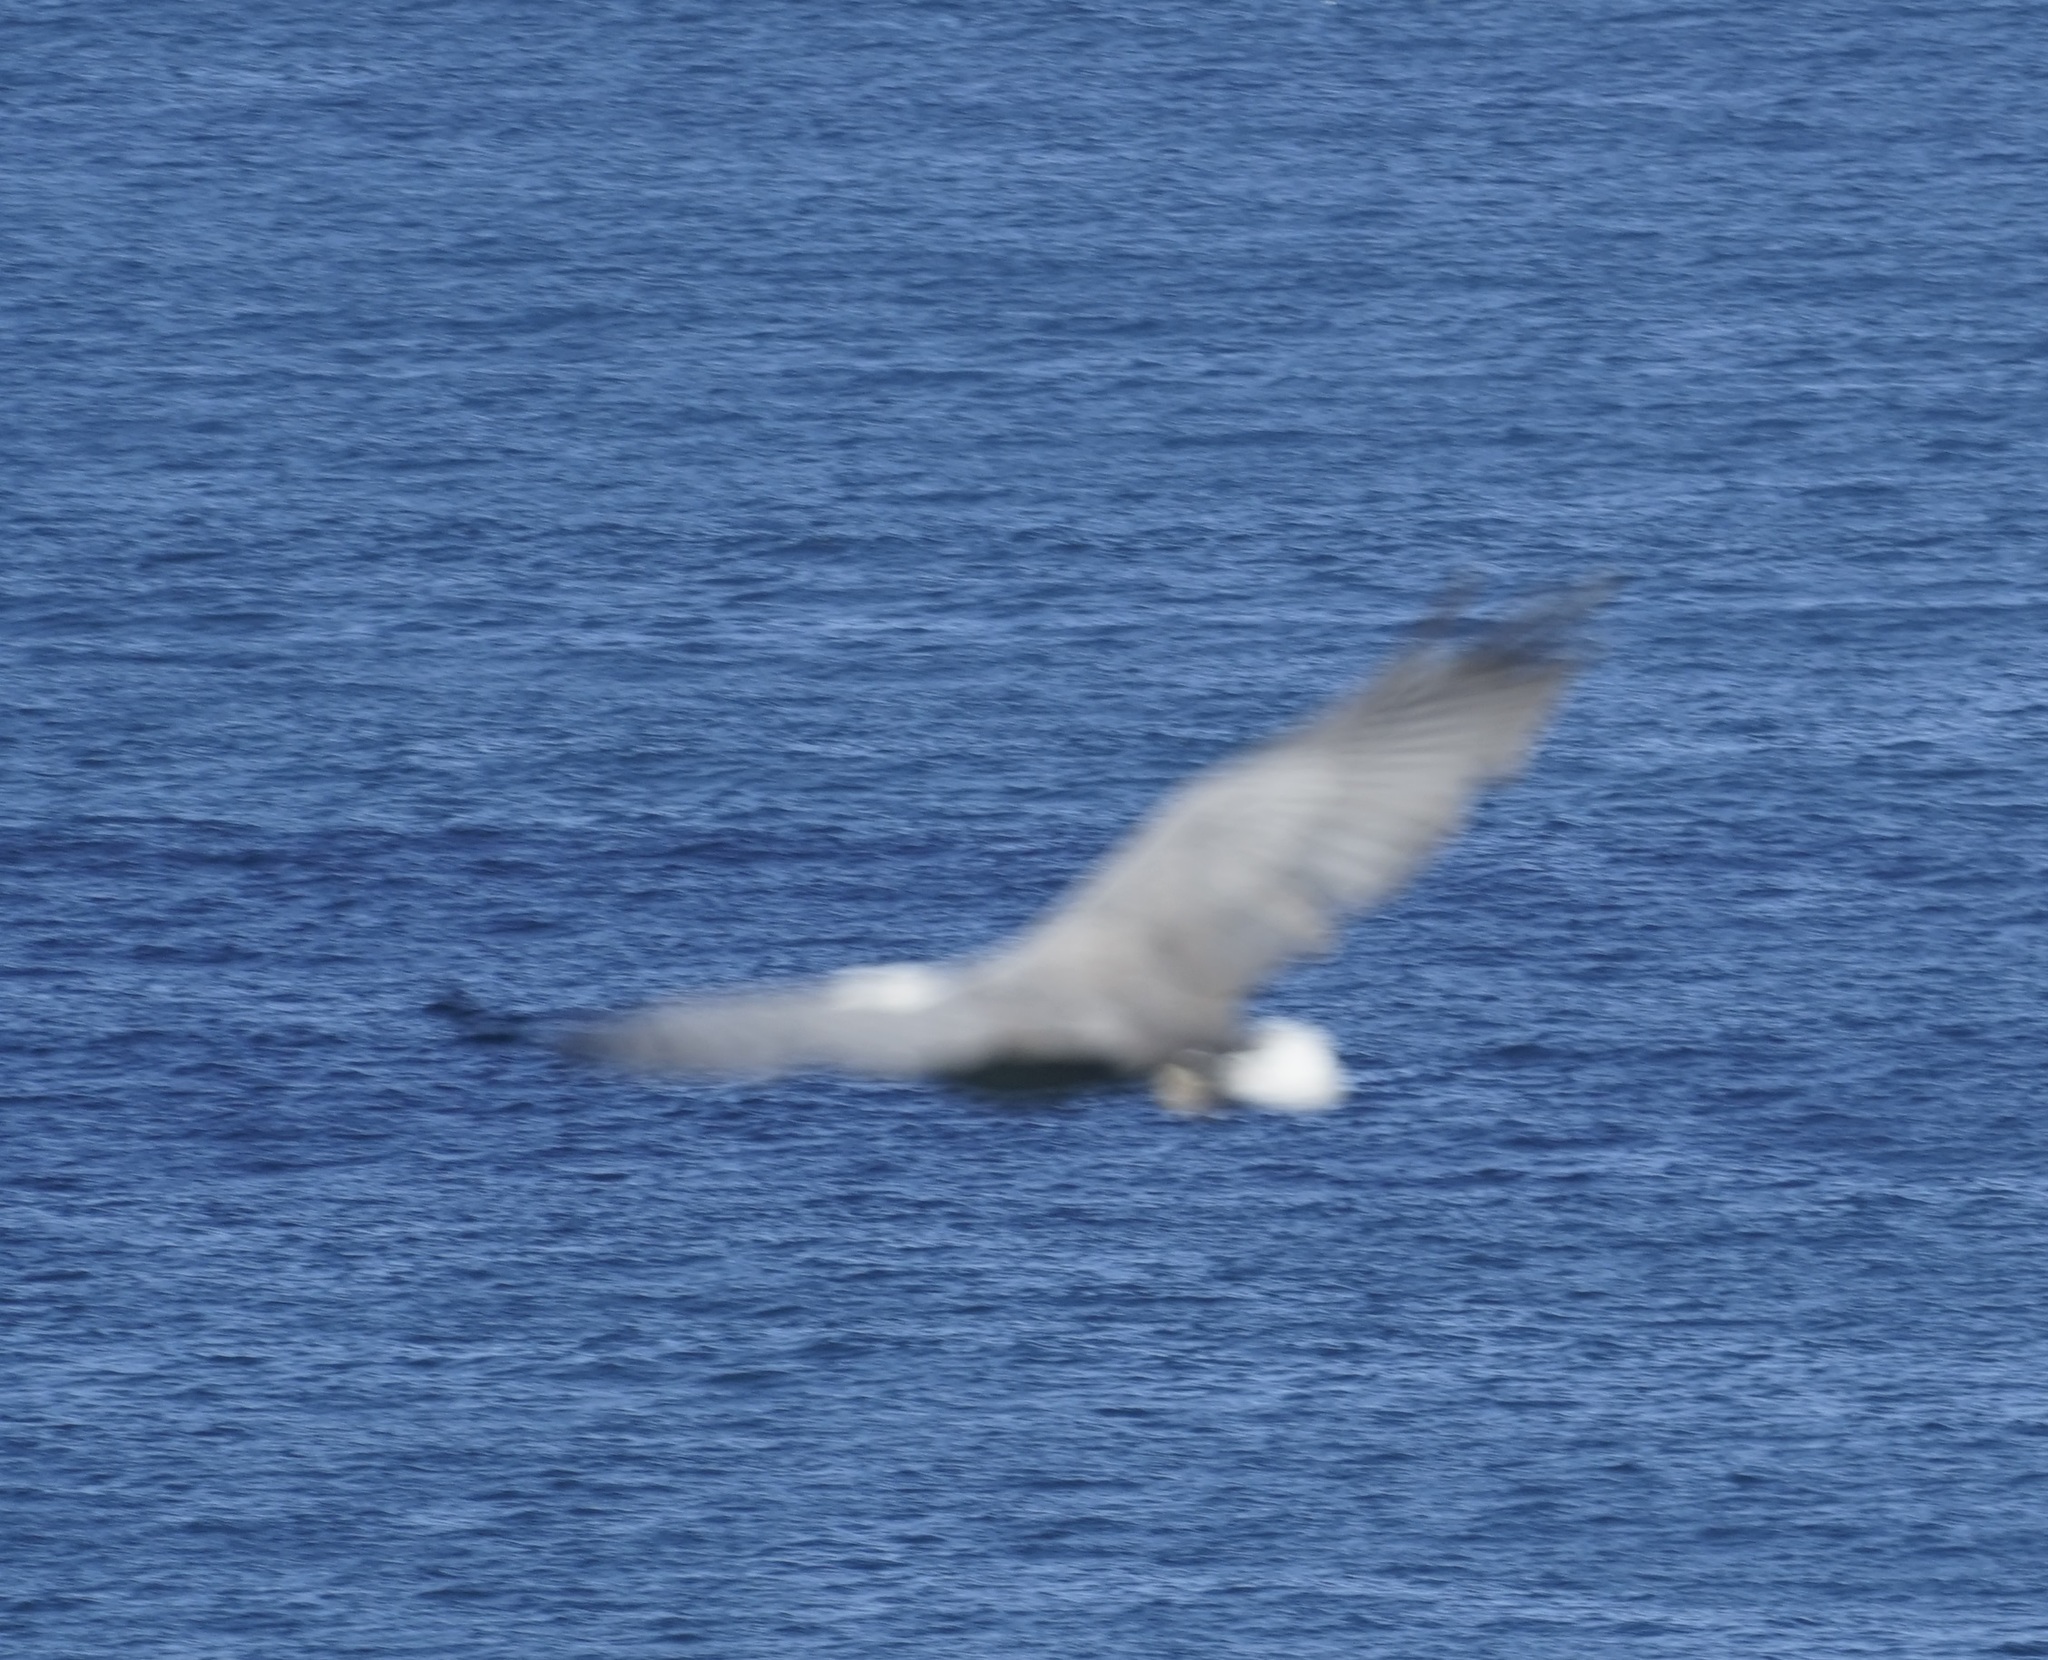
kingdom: Animalia
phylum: Chordata
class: Aves
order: Accipitriformes
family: Accipitridae
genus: Haliaeetus
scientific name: Haliaeetus leucogaster
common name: White-bellied sea eagle
